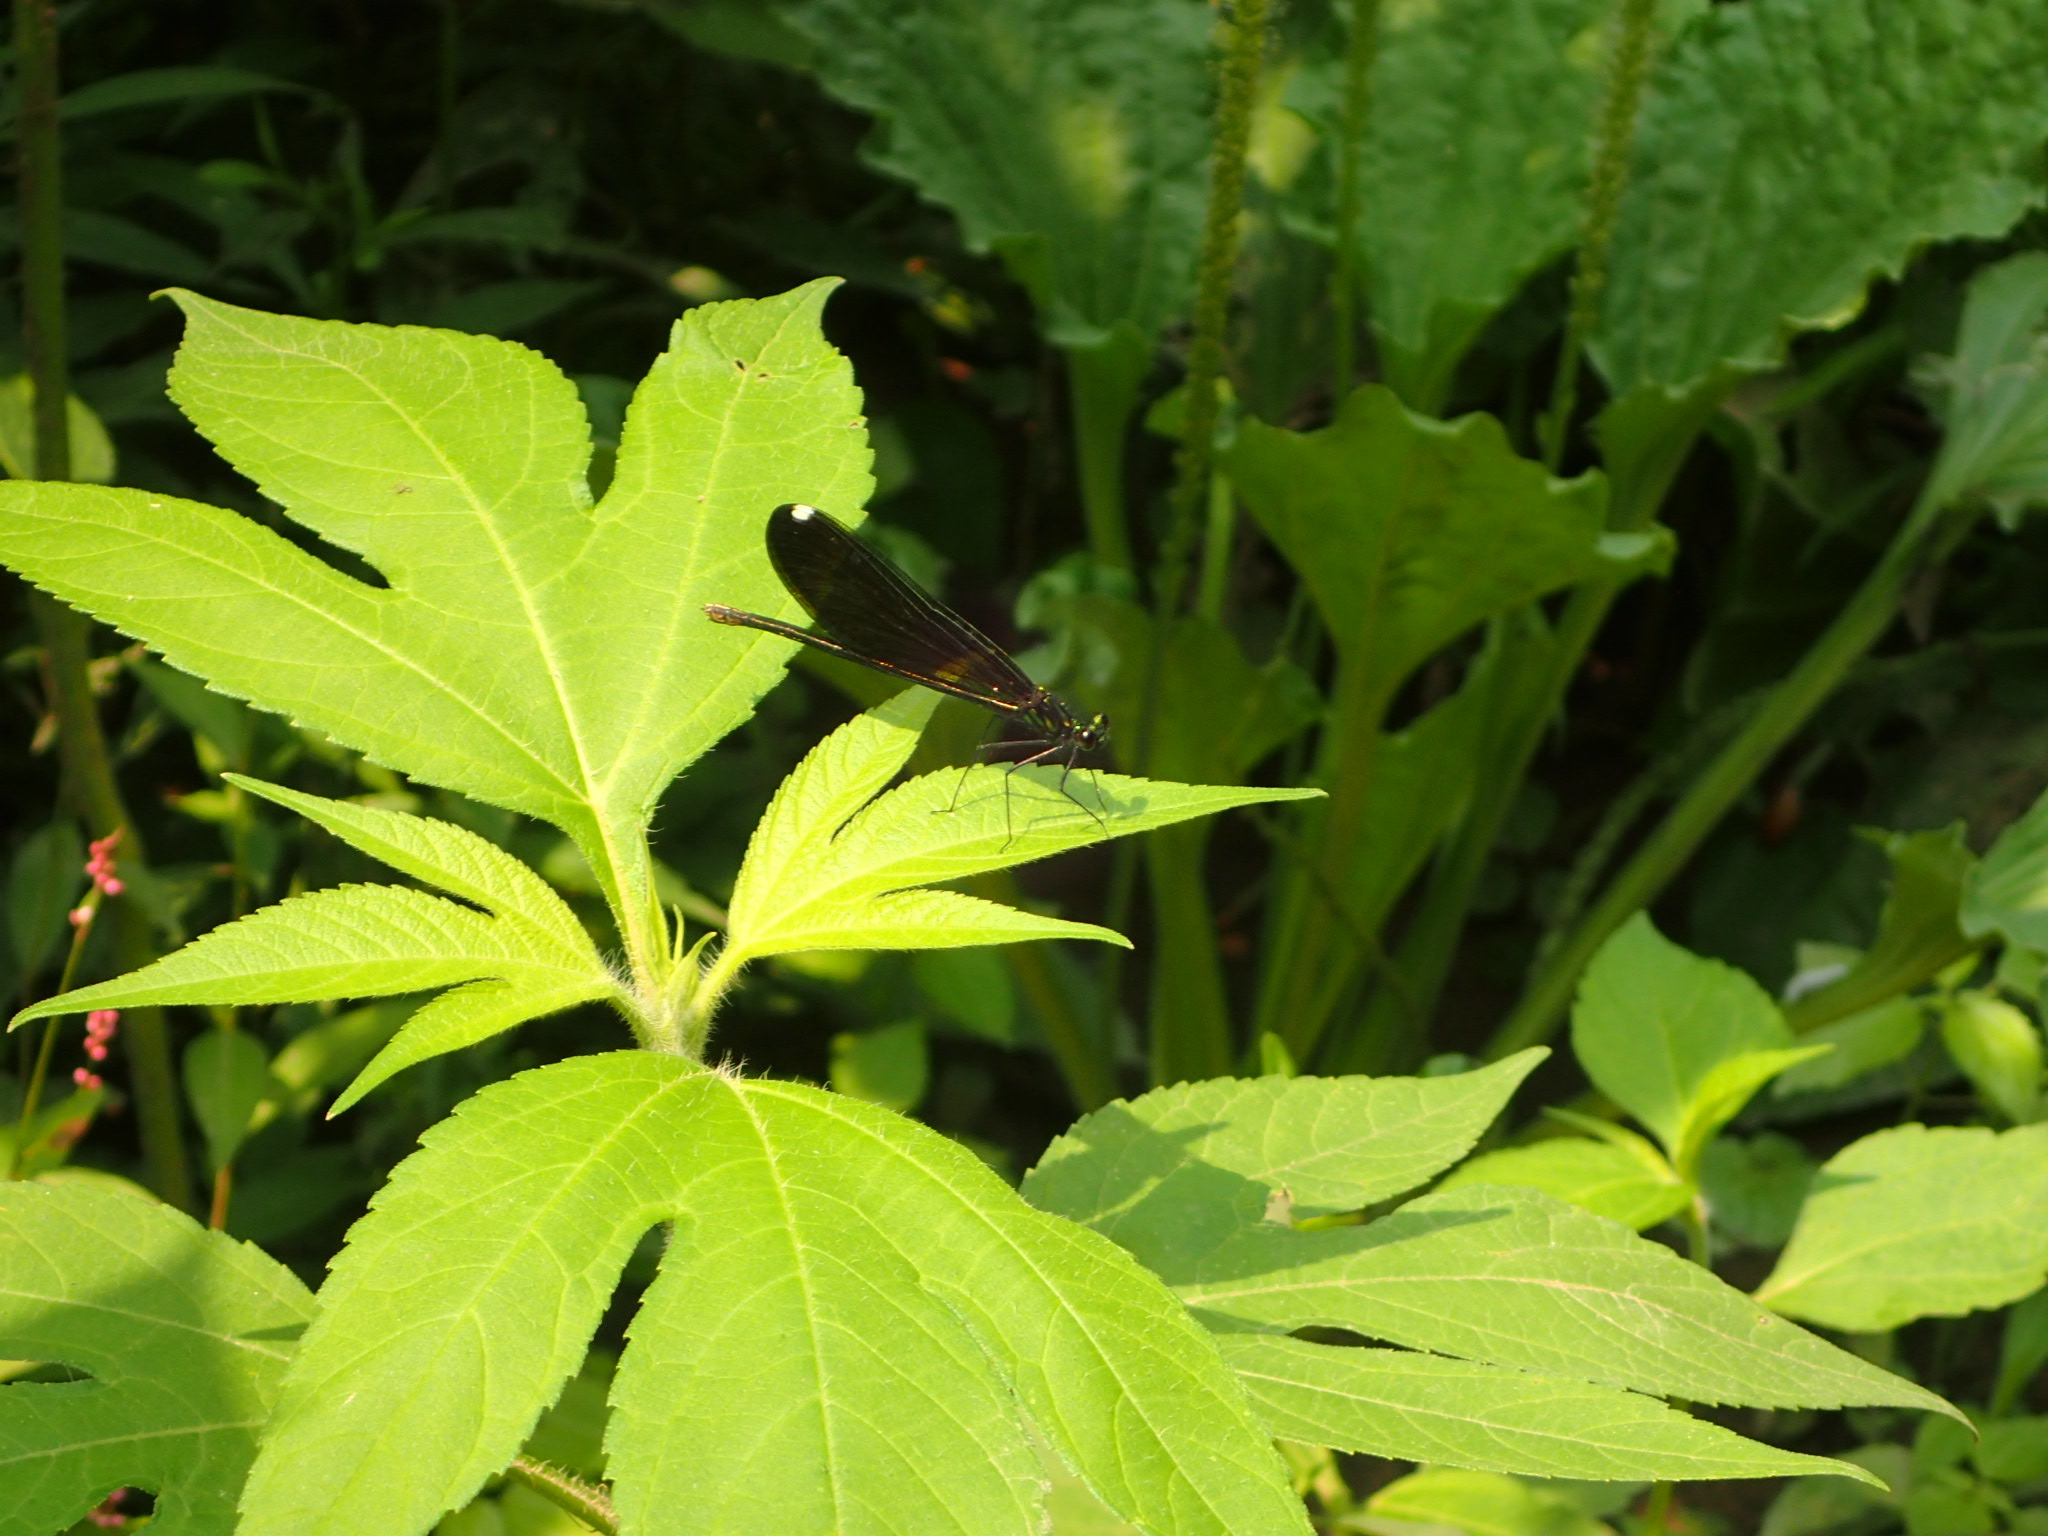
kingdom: Animalia
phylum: Arthropoda
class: Insecta
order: Odonata
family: Calopterygidae
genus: Calopteryx
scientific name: Calopteryx maculata
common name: Ebony jewelwing
